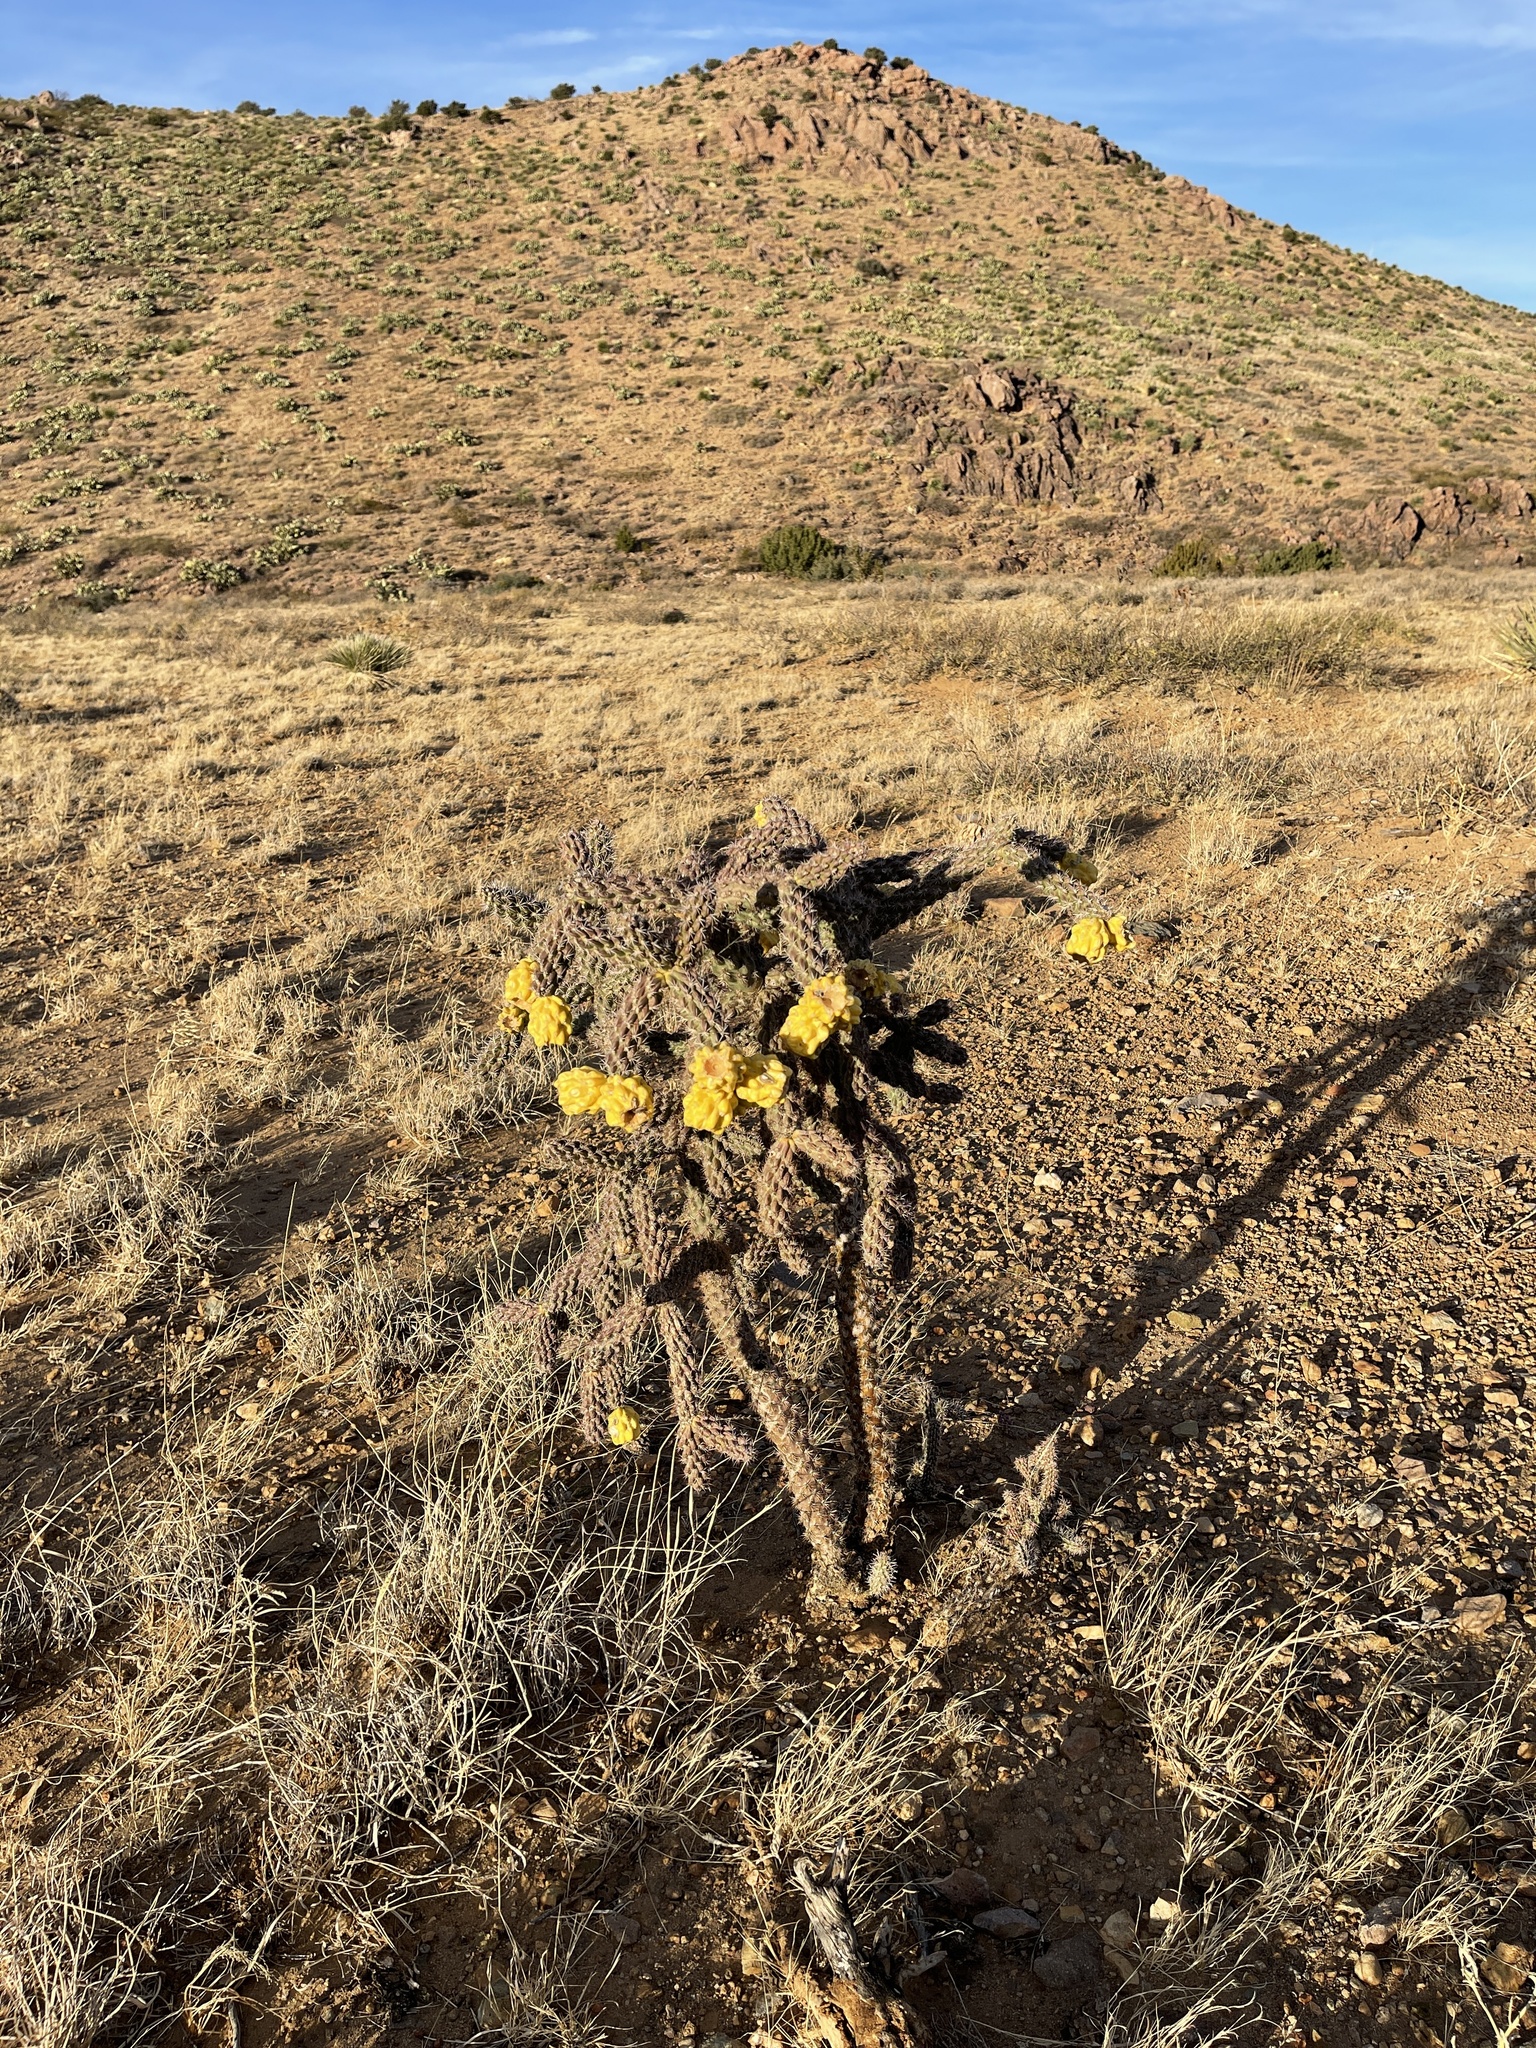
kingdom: Plantae
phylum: Tracheophyta
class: Magnoliopsida
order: Caryophyllales
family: Cactaceae
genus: Cylindropuntia
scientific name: Cylindropuntia imbricata
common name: Candelabrum cactus
